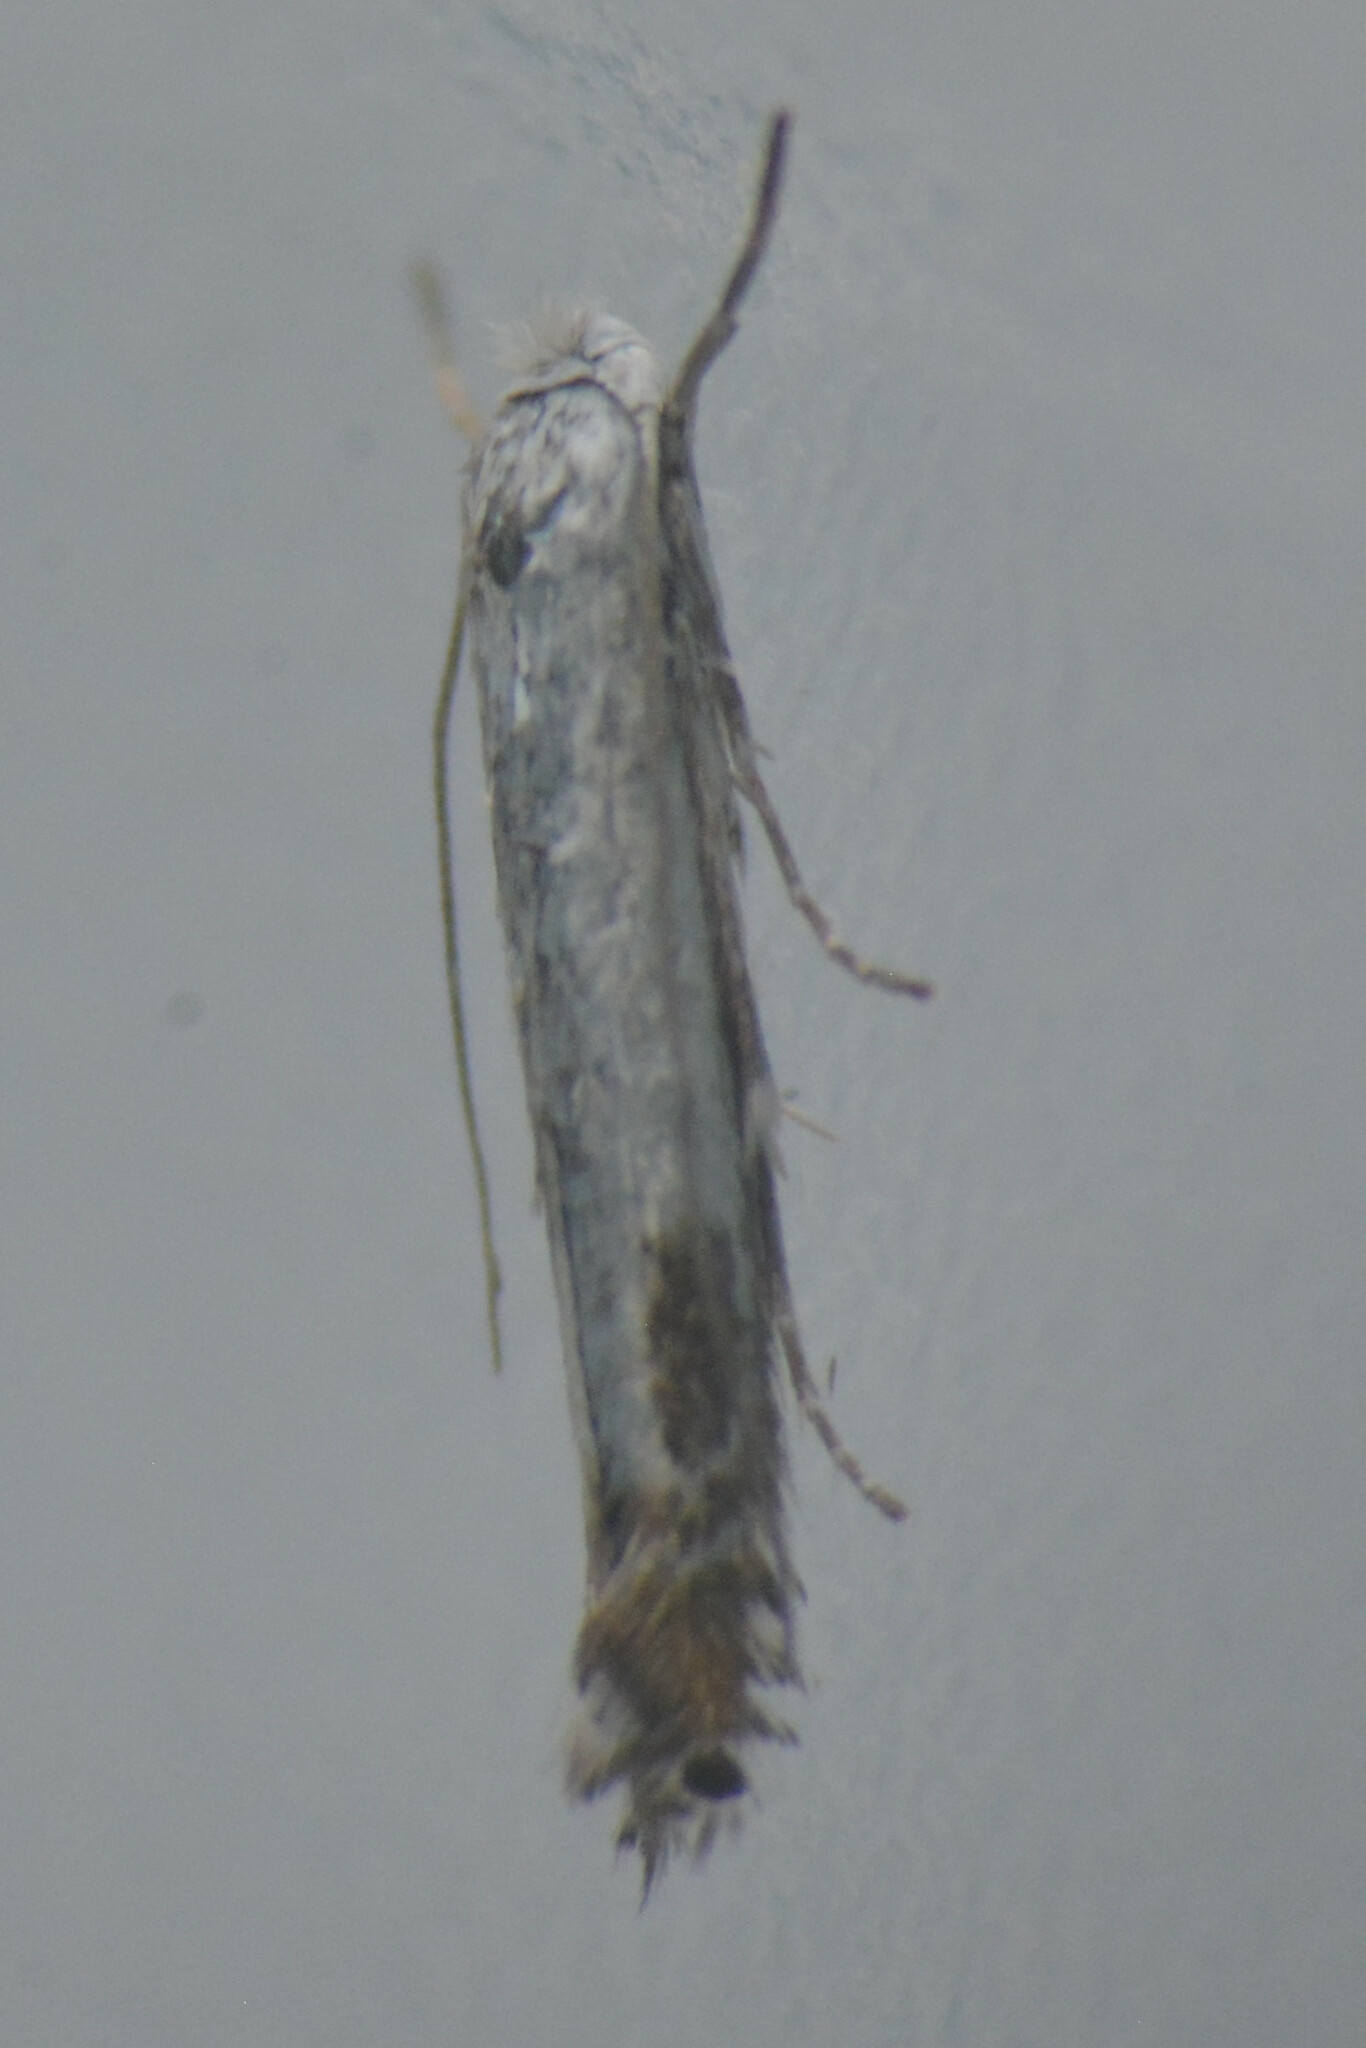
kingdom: Animalia
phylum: Arthropoda
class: Insecta
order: Lepidoptera
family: Lyonetiidae
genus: Lyonetia
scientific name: Lyonetia clerkella
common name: Apple leaf miner
